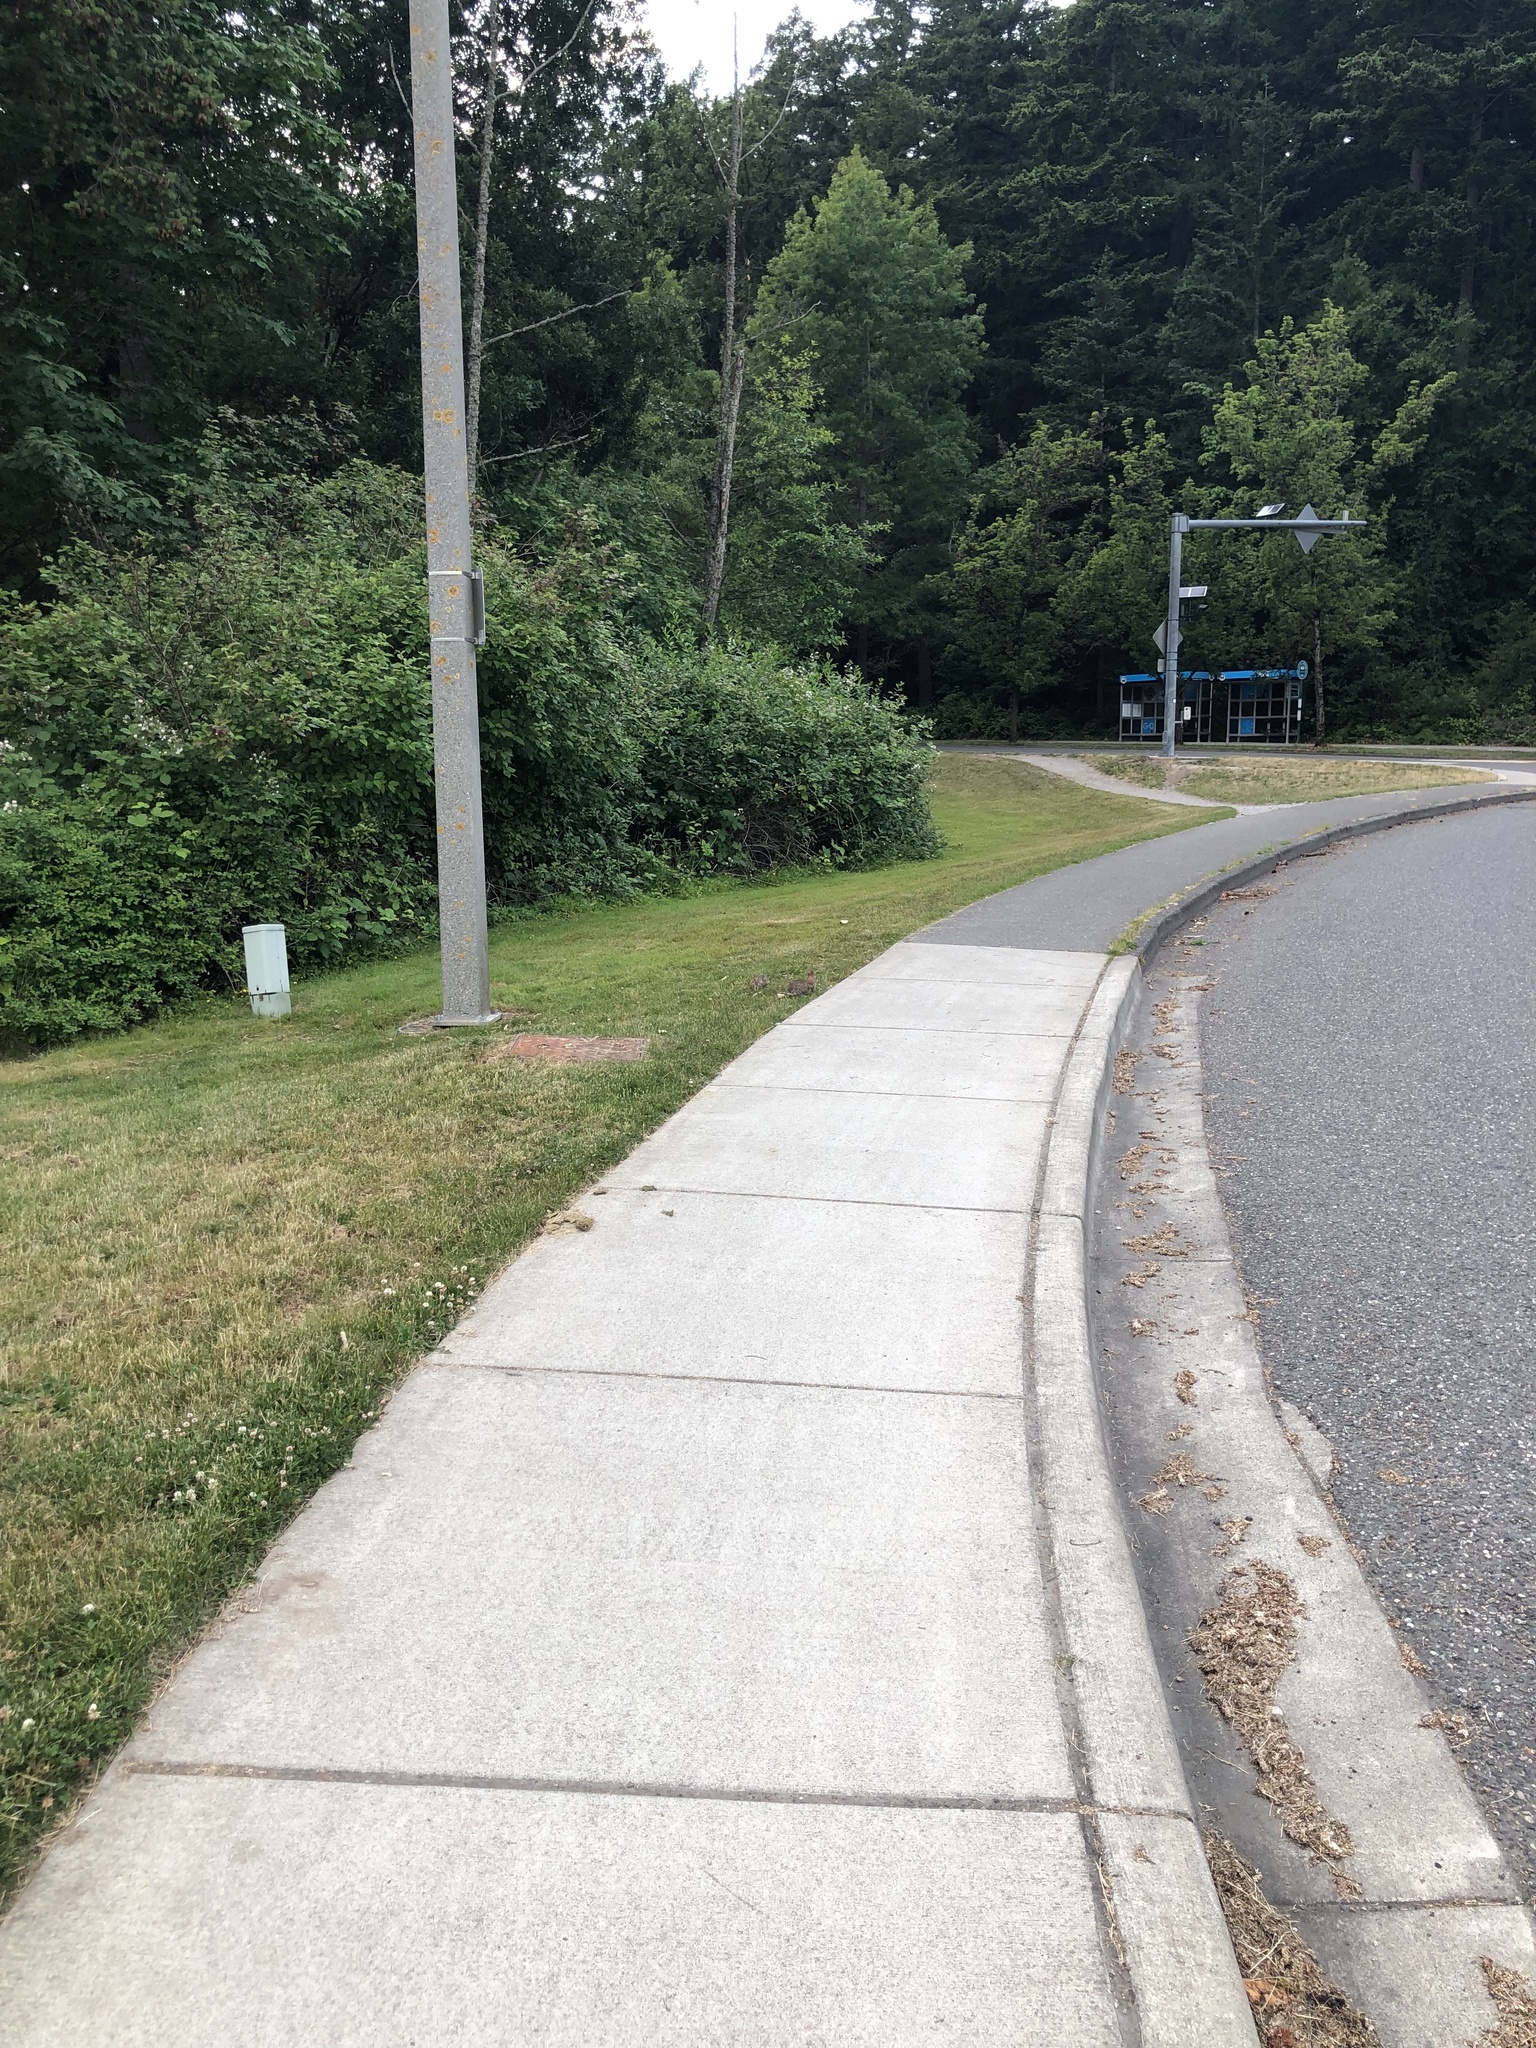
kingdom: Animalia
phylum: Chordata
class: Mammalia
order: Lagomorpha
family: Leporidae
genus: Sylvilagus
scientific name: Sylvilagus floridanus
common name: Eastern cottontail
